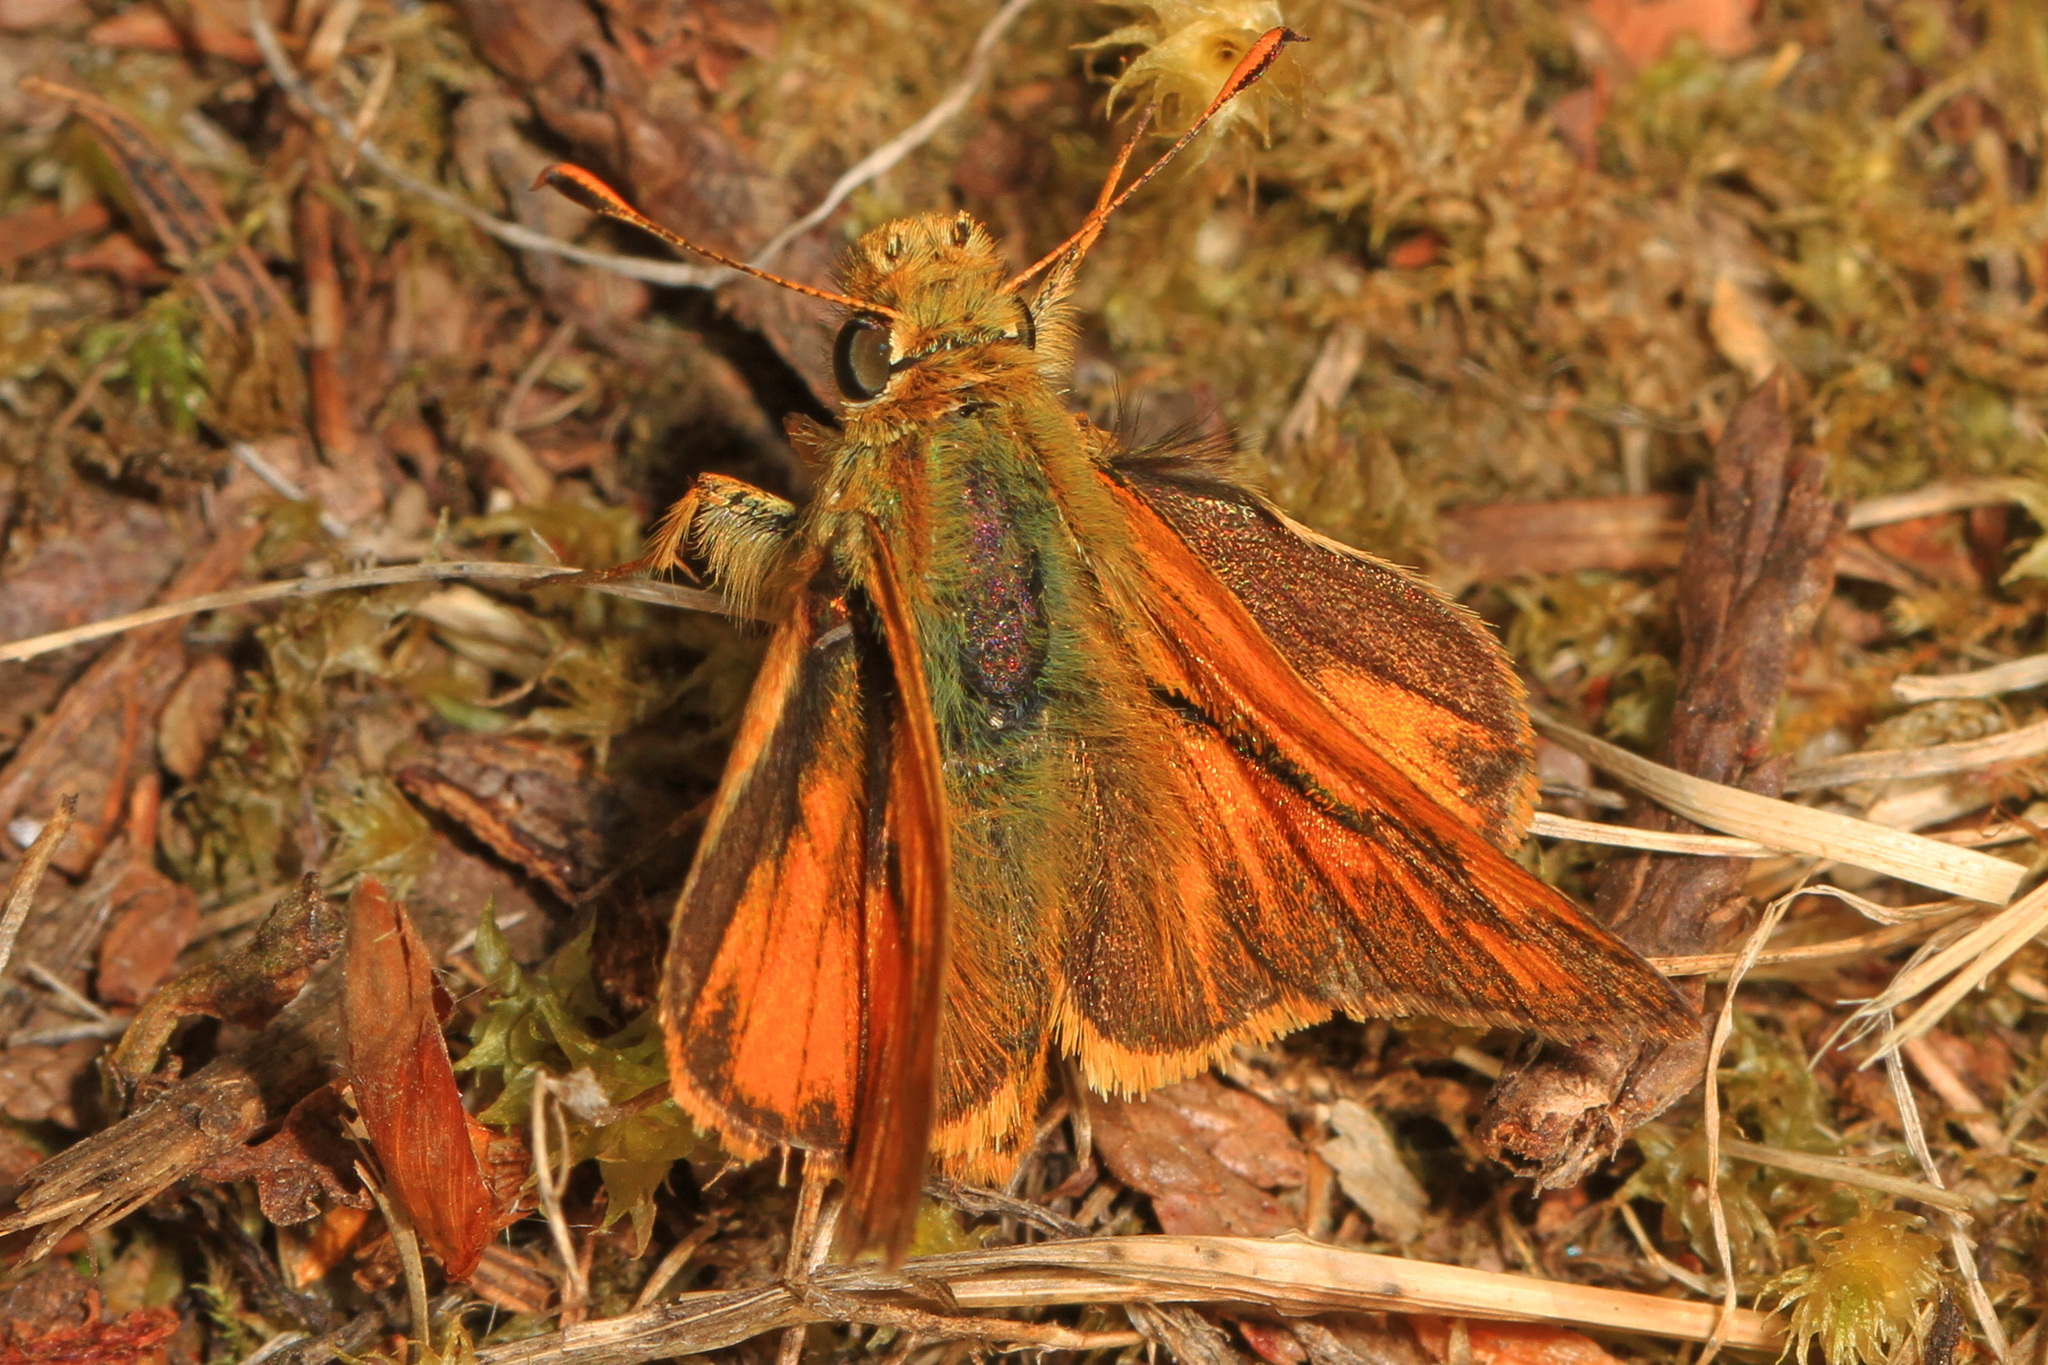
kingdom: Animalia
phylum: Arthropoda
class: Insecta
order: Lepidoptera
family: Hesperiidae
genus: Ochlodes
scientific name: Ochlodes sylvanoides
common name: Woodland skipper
